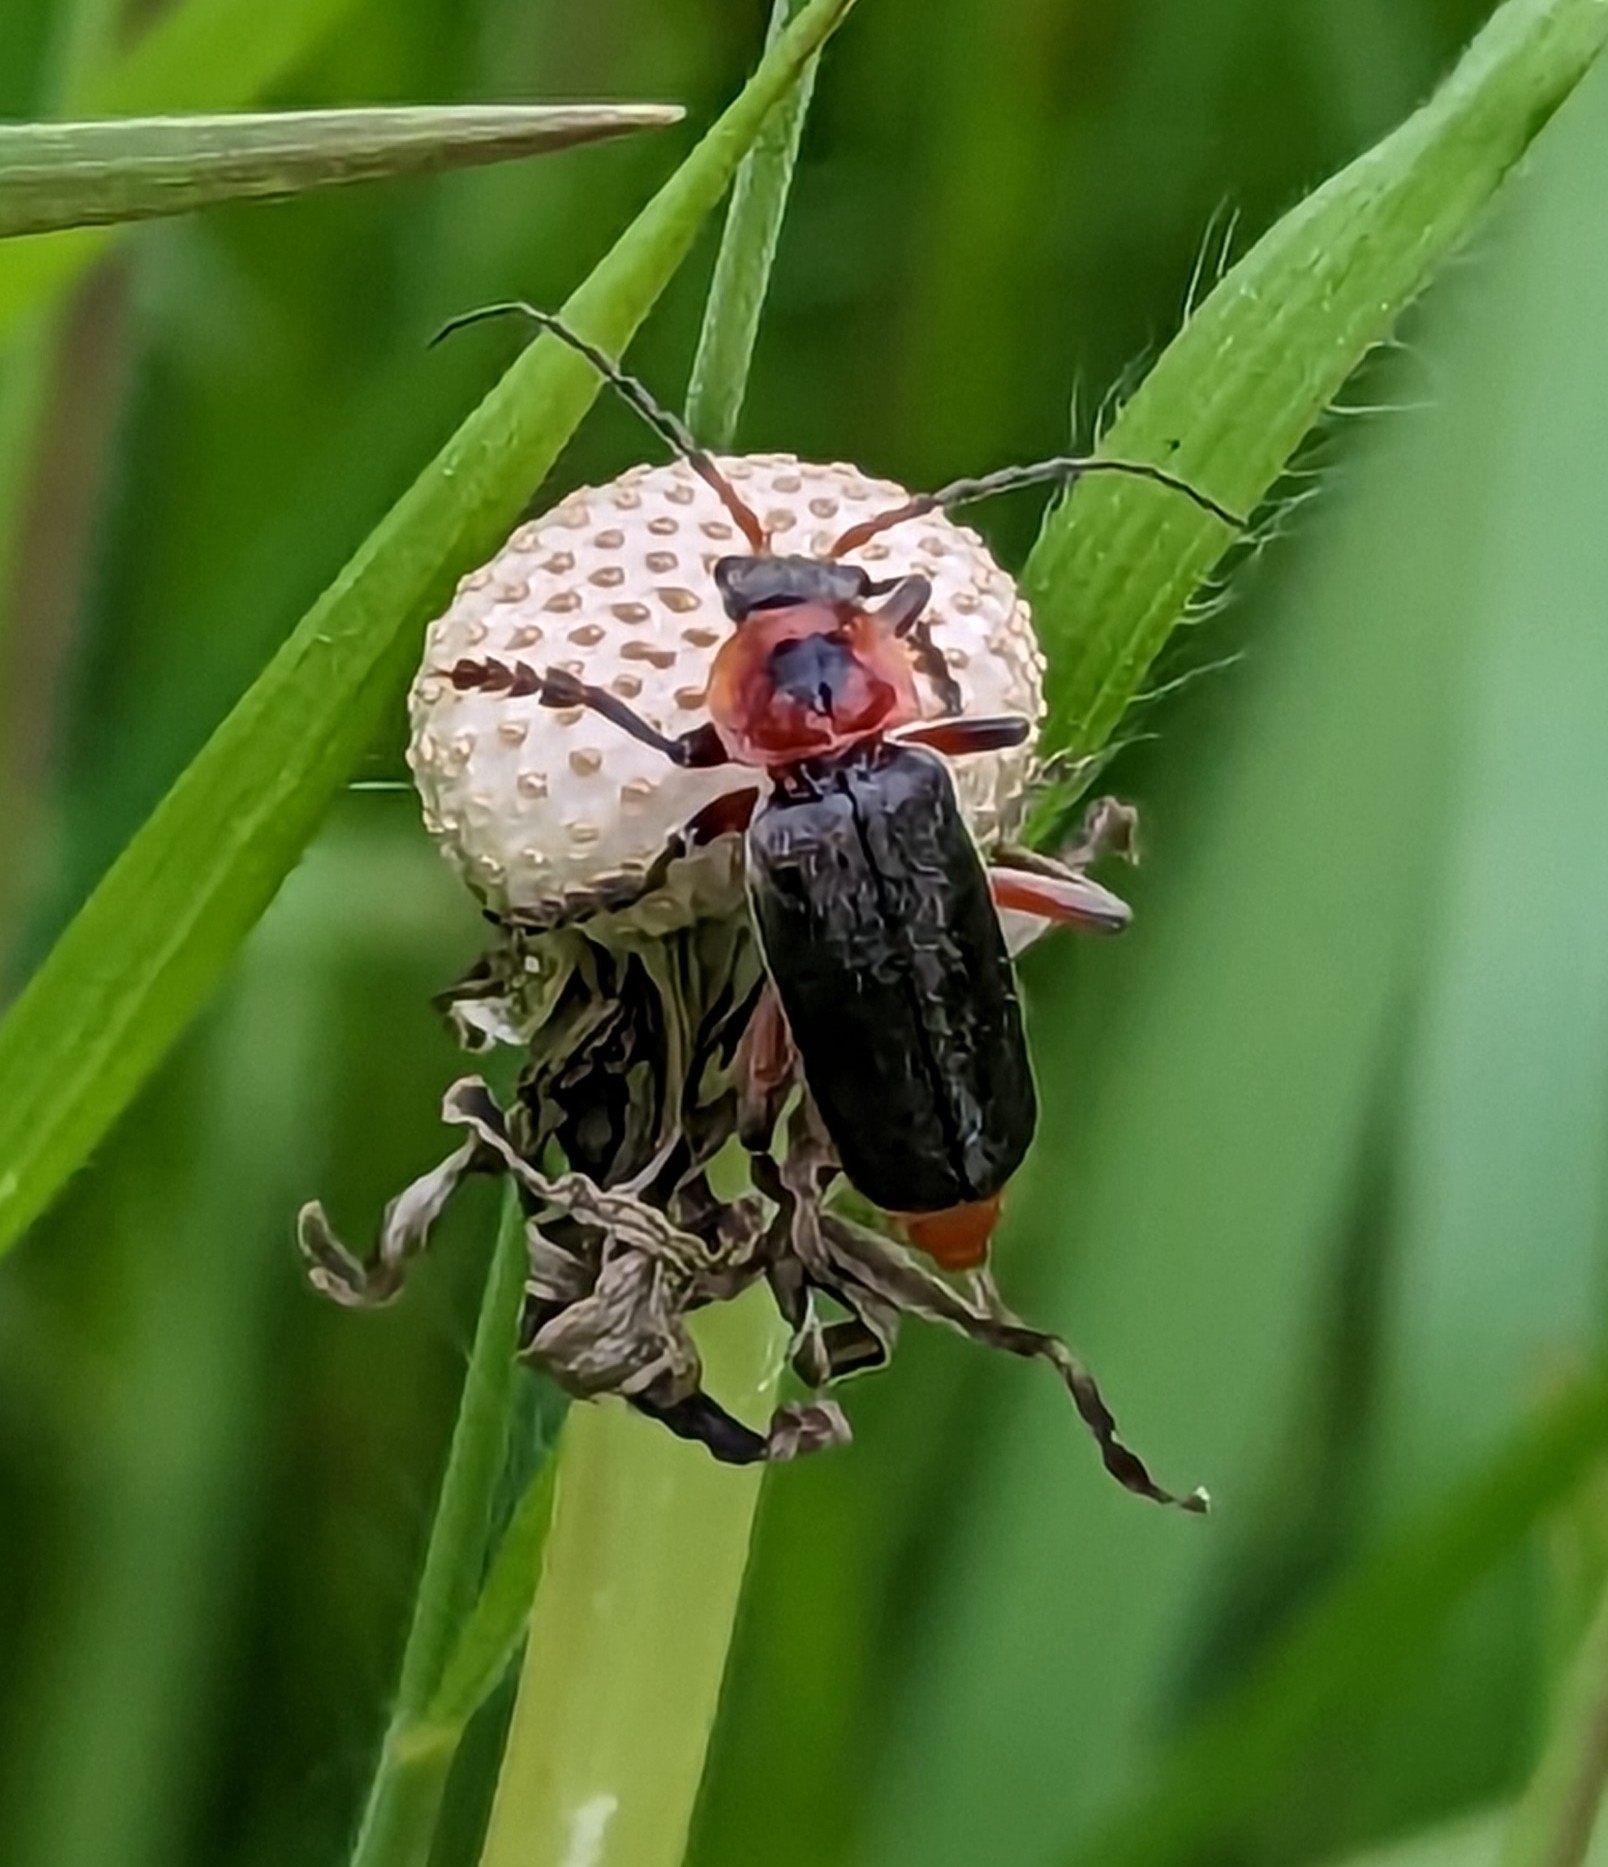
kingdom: Animalia
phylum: Arthropoda
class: Insecta
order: Coleoptera
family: Cantharidae
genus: Cantharis
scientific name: Cantharis rustica
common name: Soldier beetle
